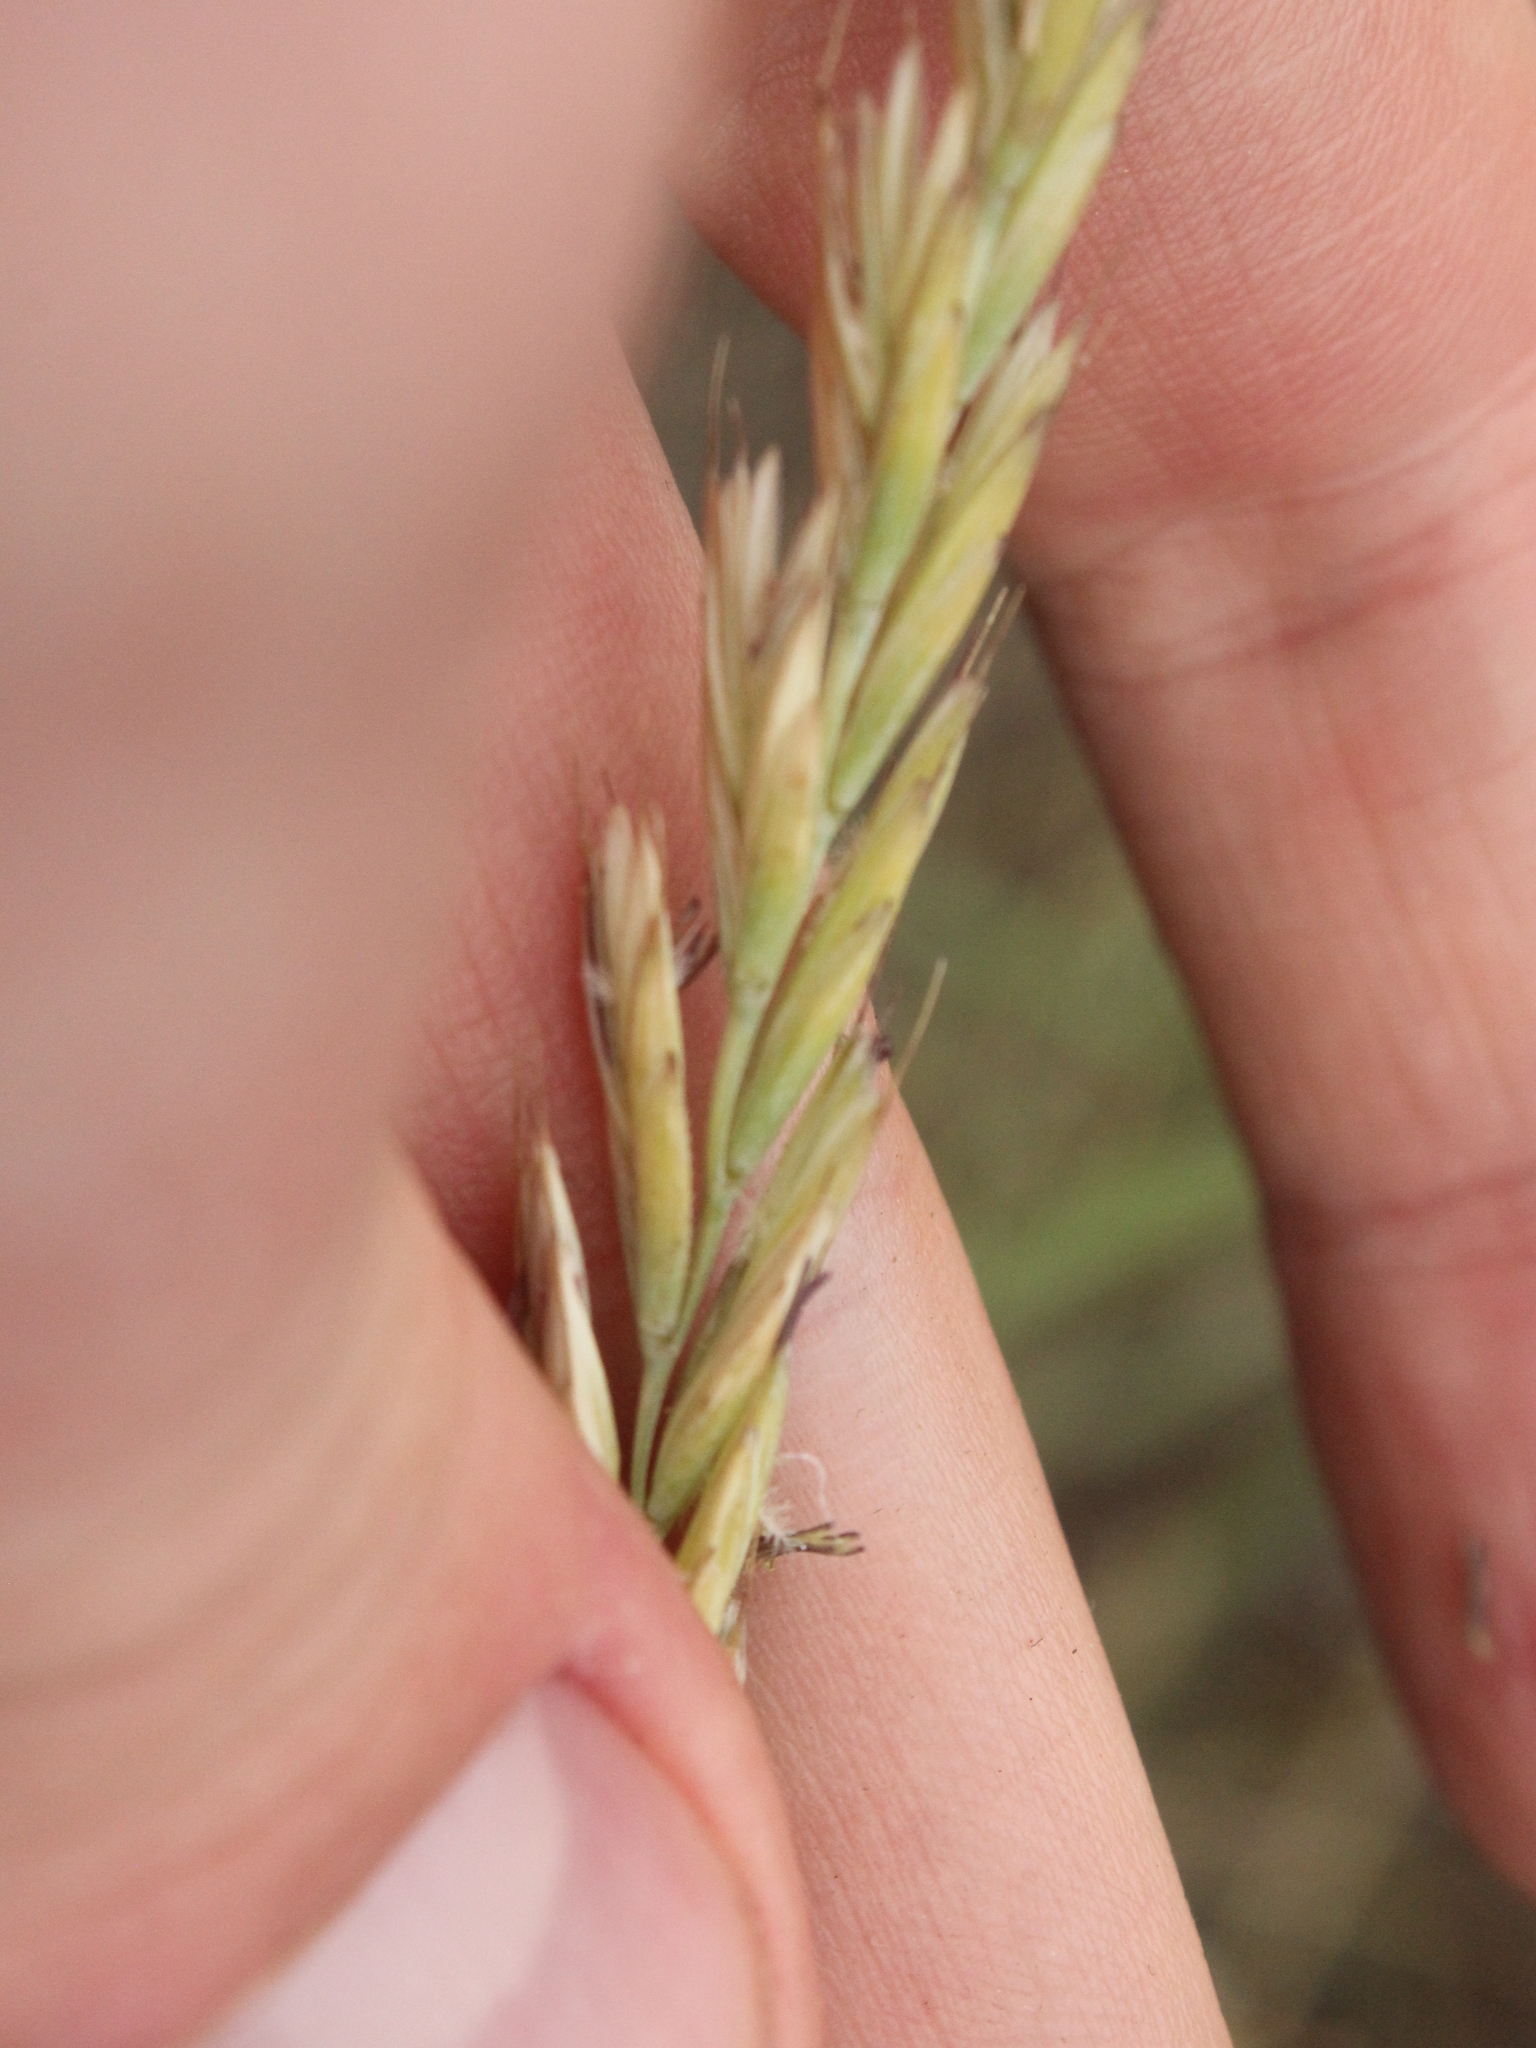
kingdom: Plantae
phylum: Tracheophyta
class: Liliopsida
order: Poales
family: Poaceae
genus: Thinopyrum
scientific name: Thinopyrum acutum
